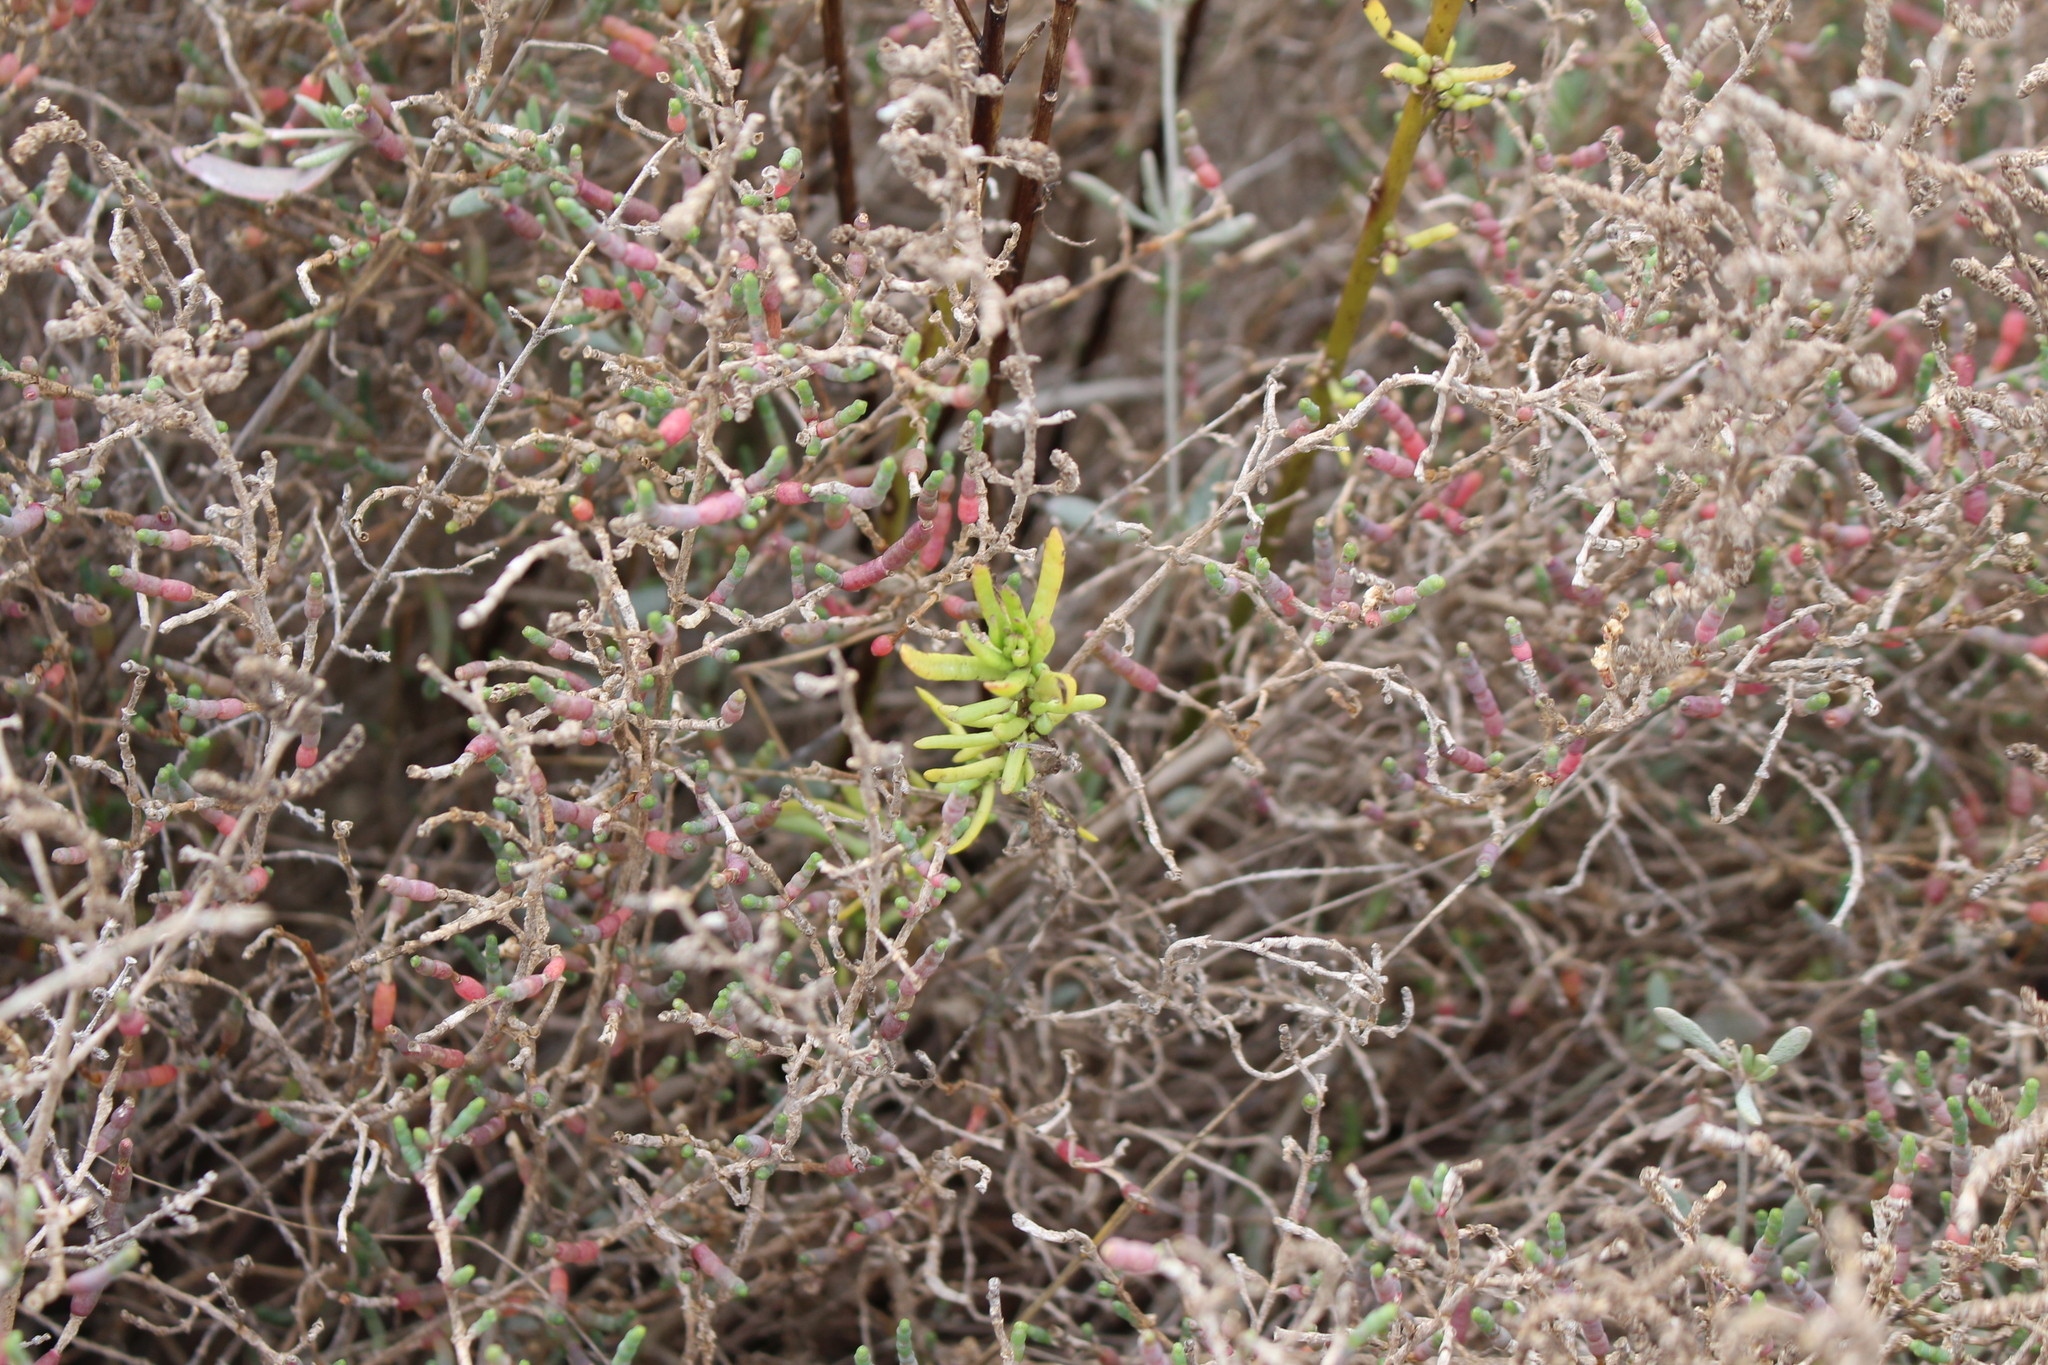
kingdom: Plantae
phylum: Tracheophyta
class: Magnoliopsida
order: Asterales
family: Asteraceae
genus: Limbarda
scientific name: Limbarda crithmoides
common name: Golden samphire
